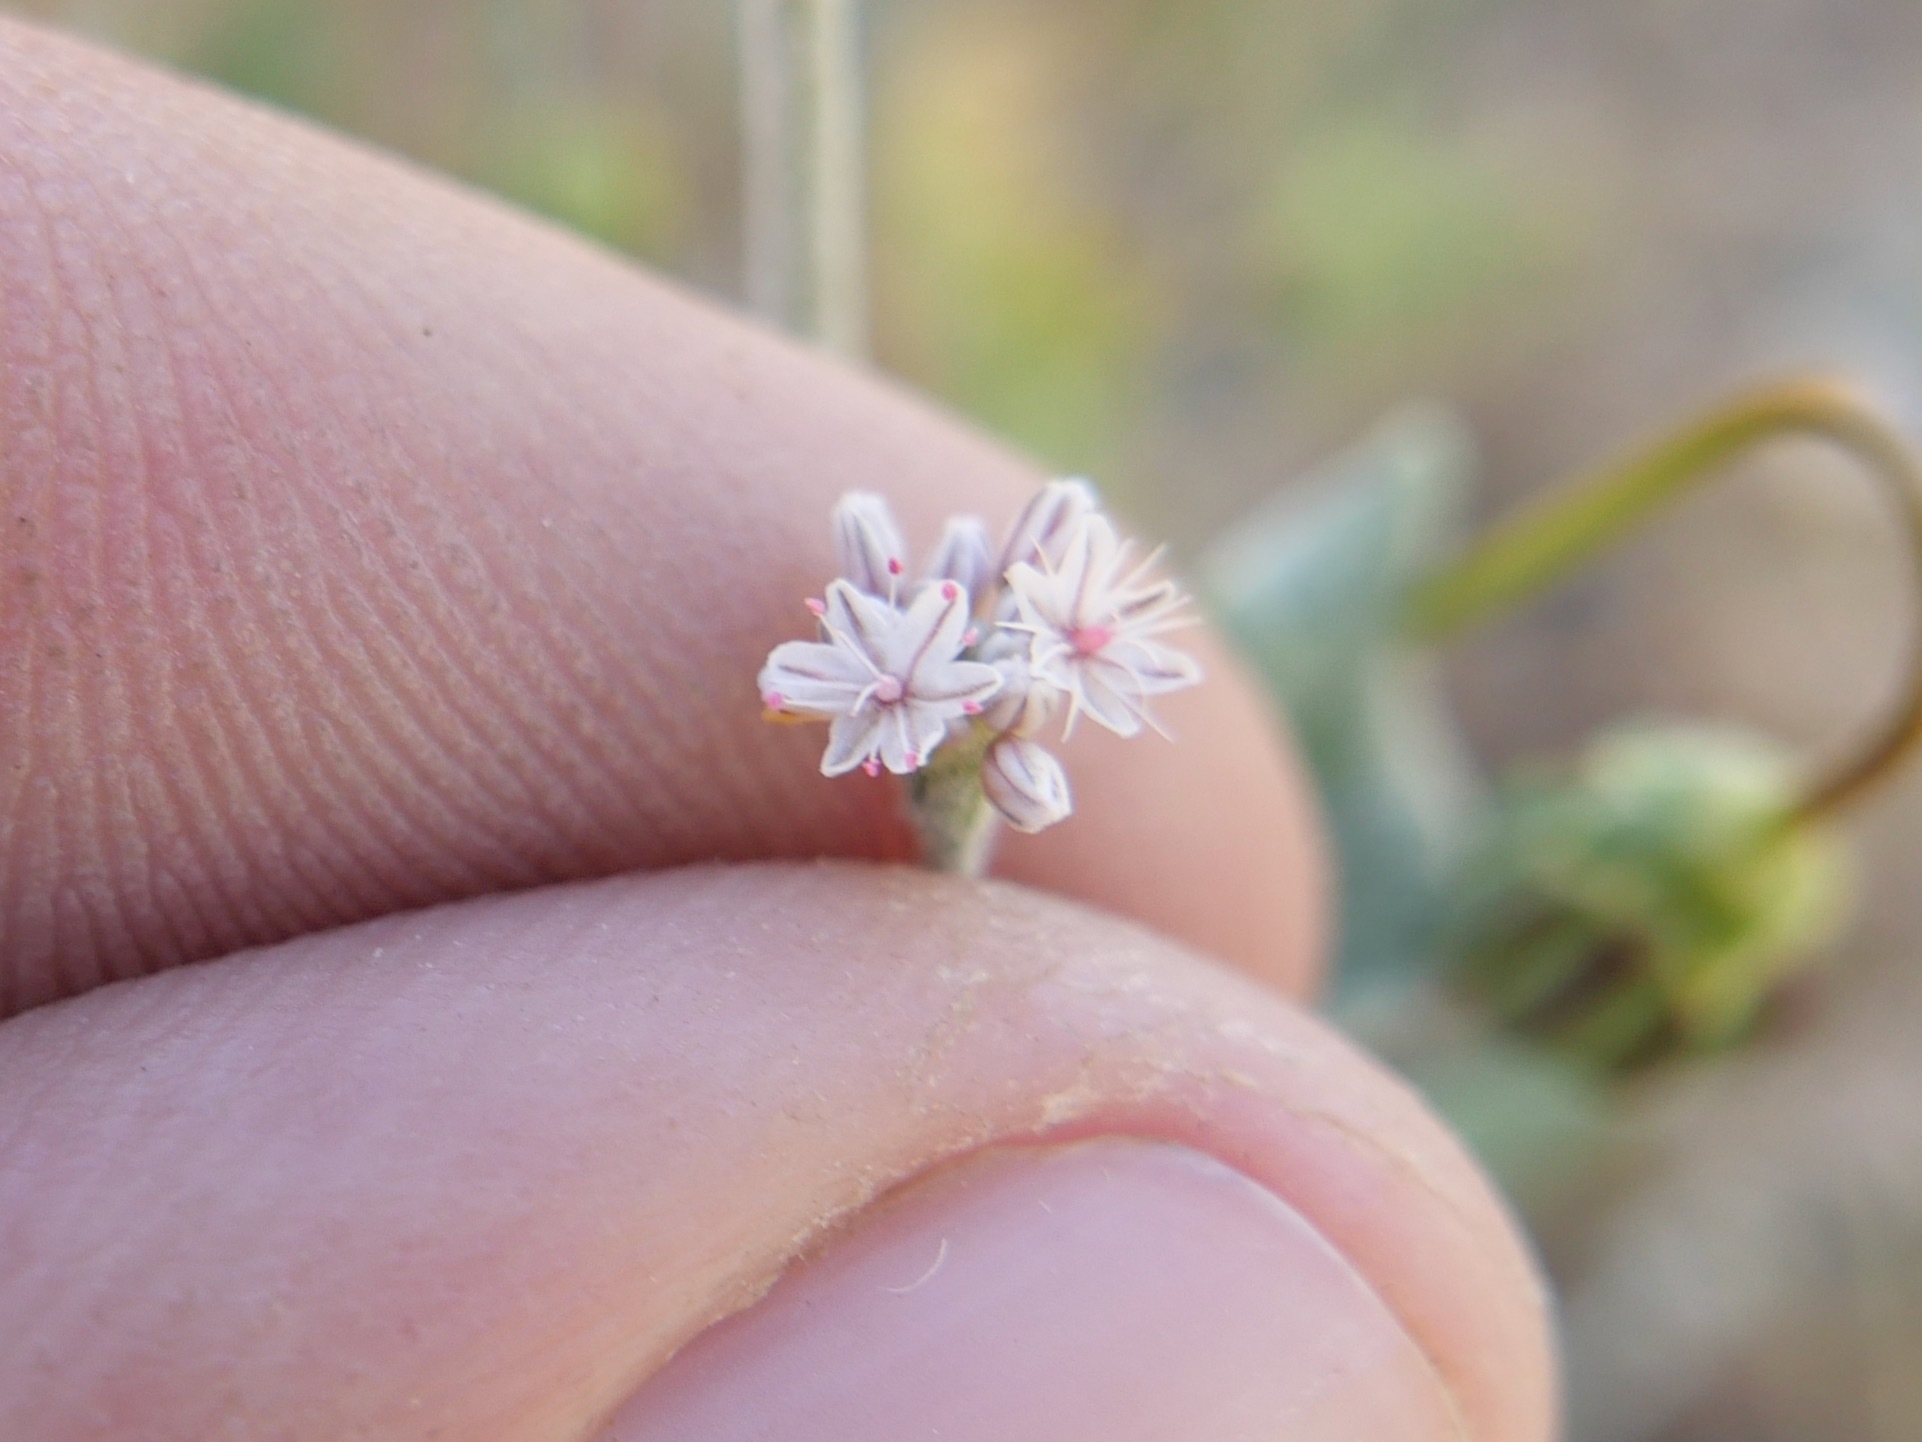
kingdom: Plantae
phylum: Tracheophyta
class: Magnoliopsida
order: Caryophyllales
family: Polygonaceae
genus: Eriogonum
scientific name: Eriogonum vestitum
